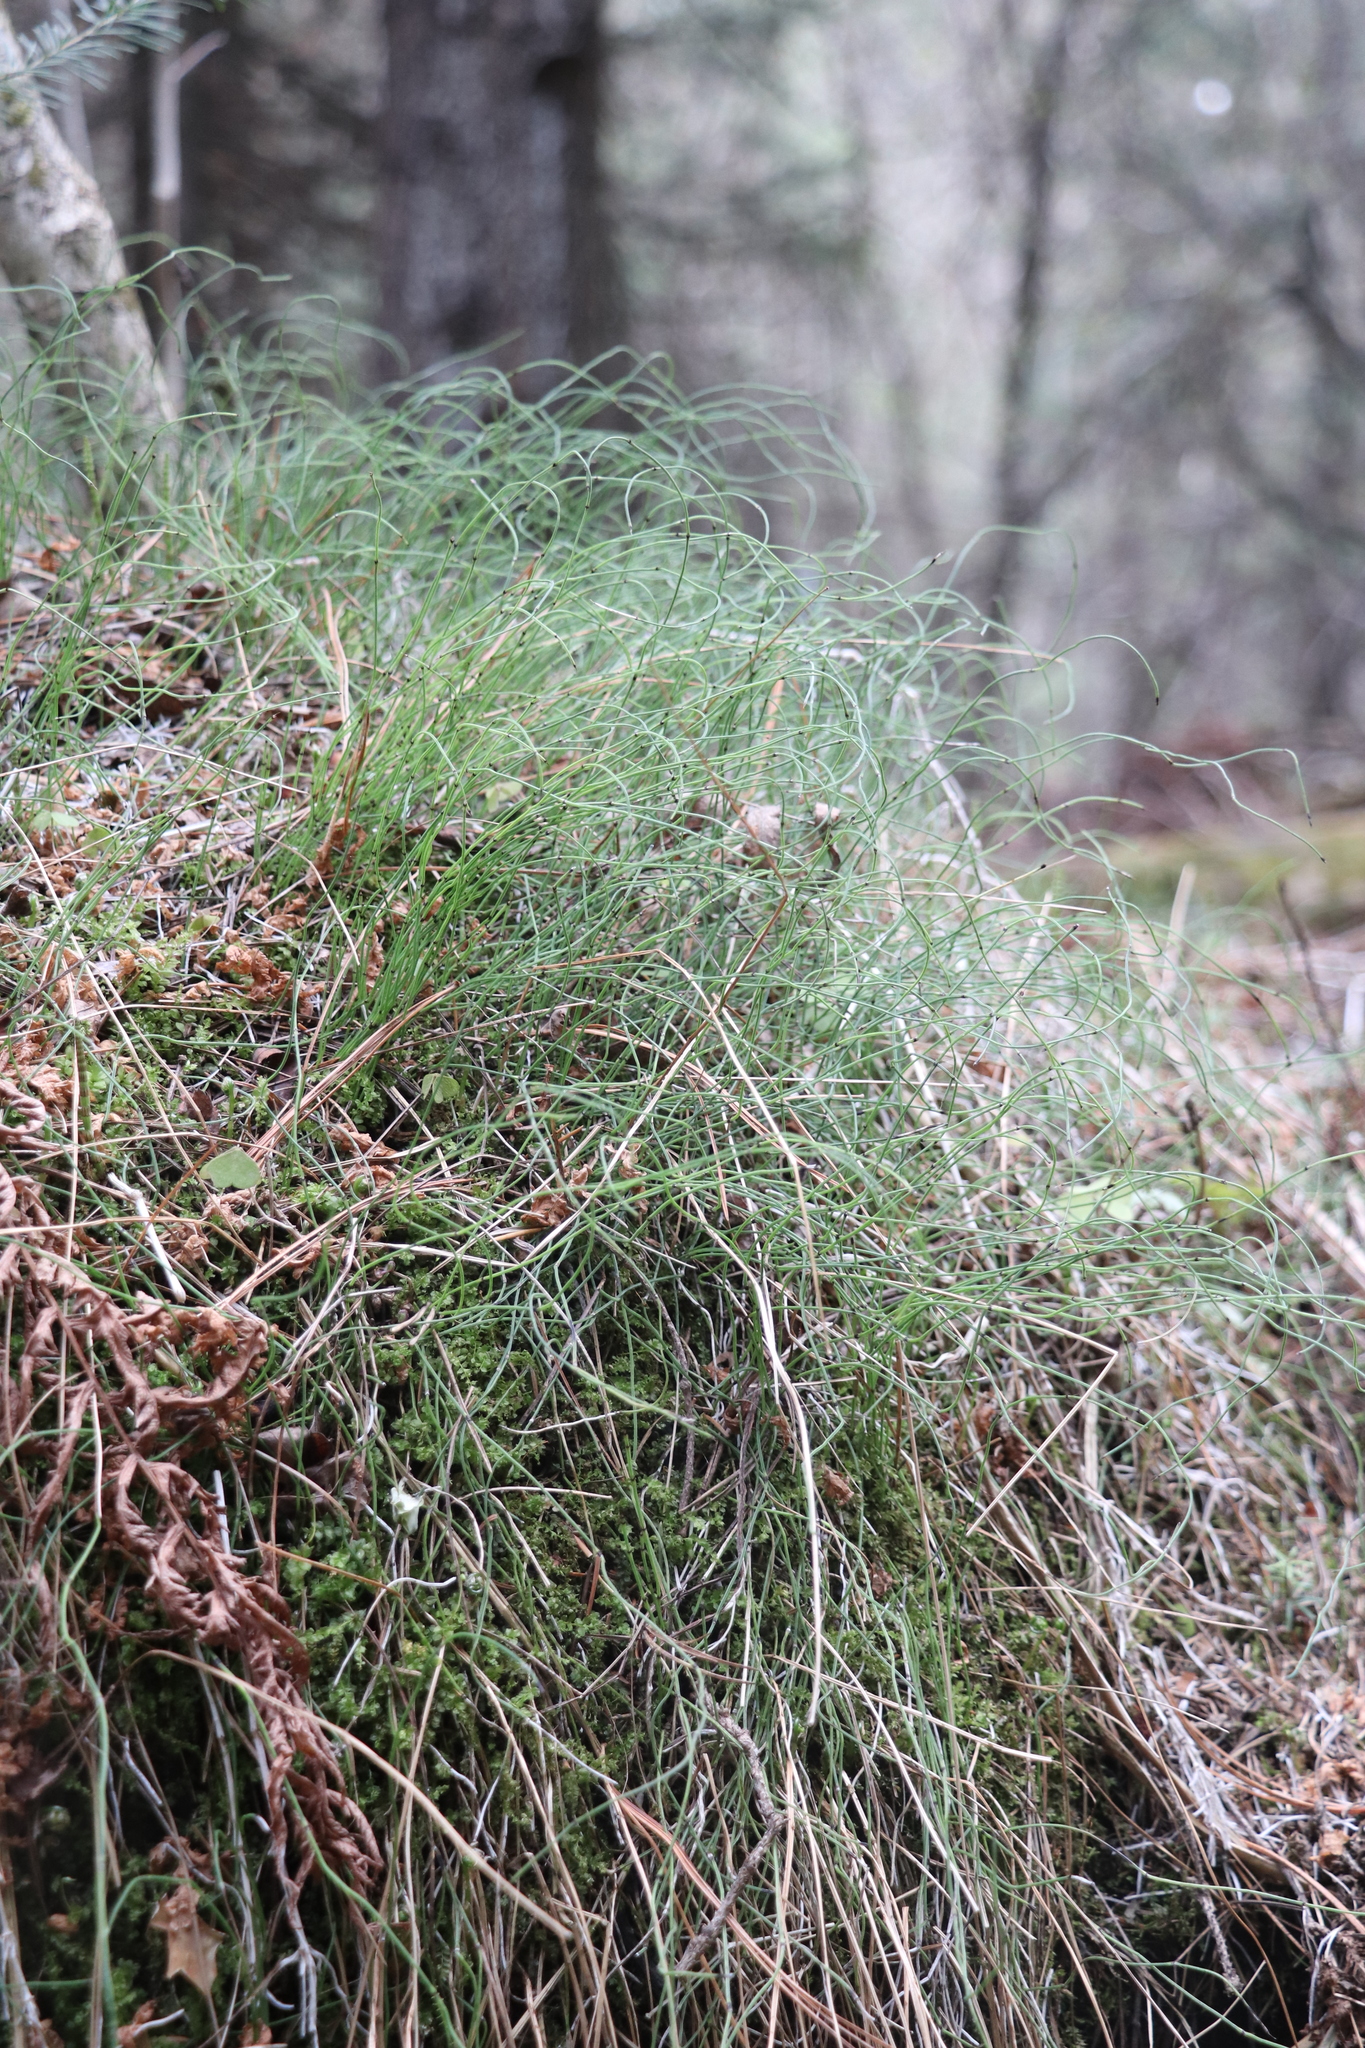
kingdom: Plantae
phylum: Tracheophyta
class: Polypodiopsida
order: Equisetales
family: Equisetaceae
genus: Equisetum
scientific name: Equisetum scirpoides
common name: Delicate horsetail
